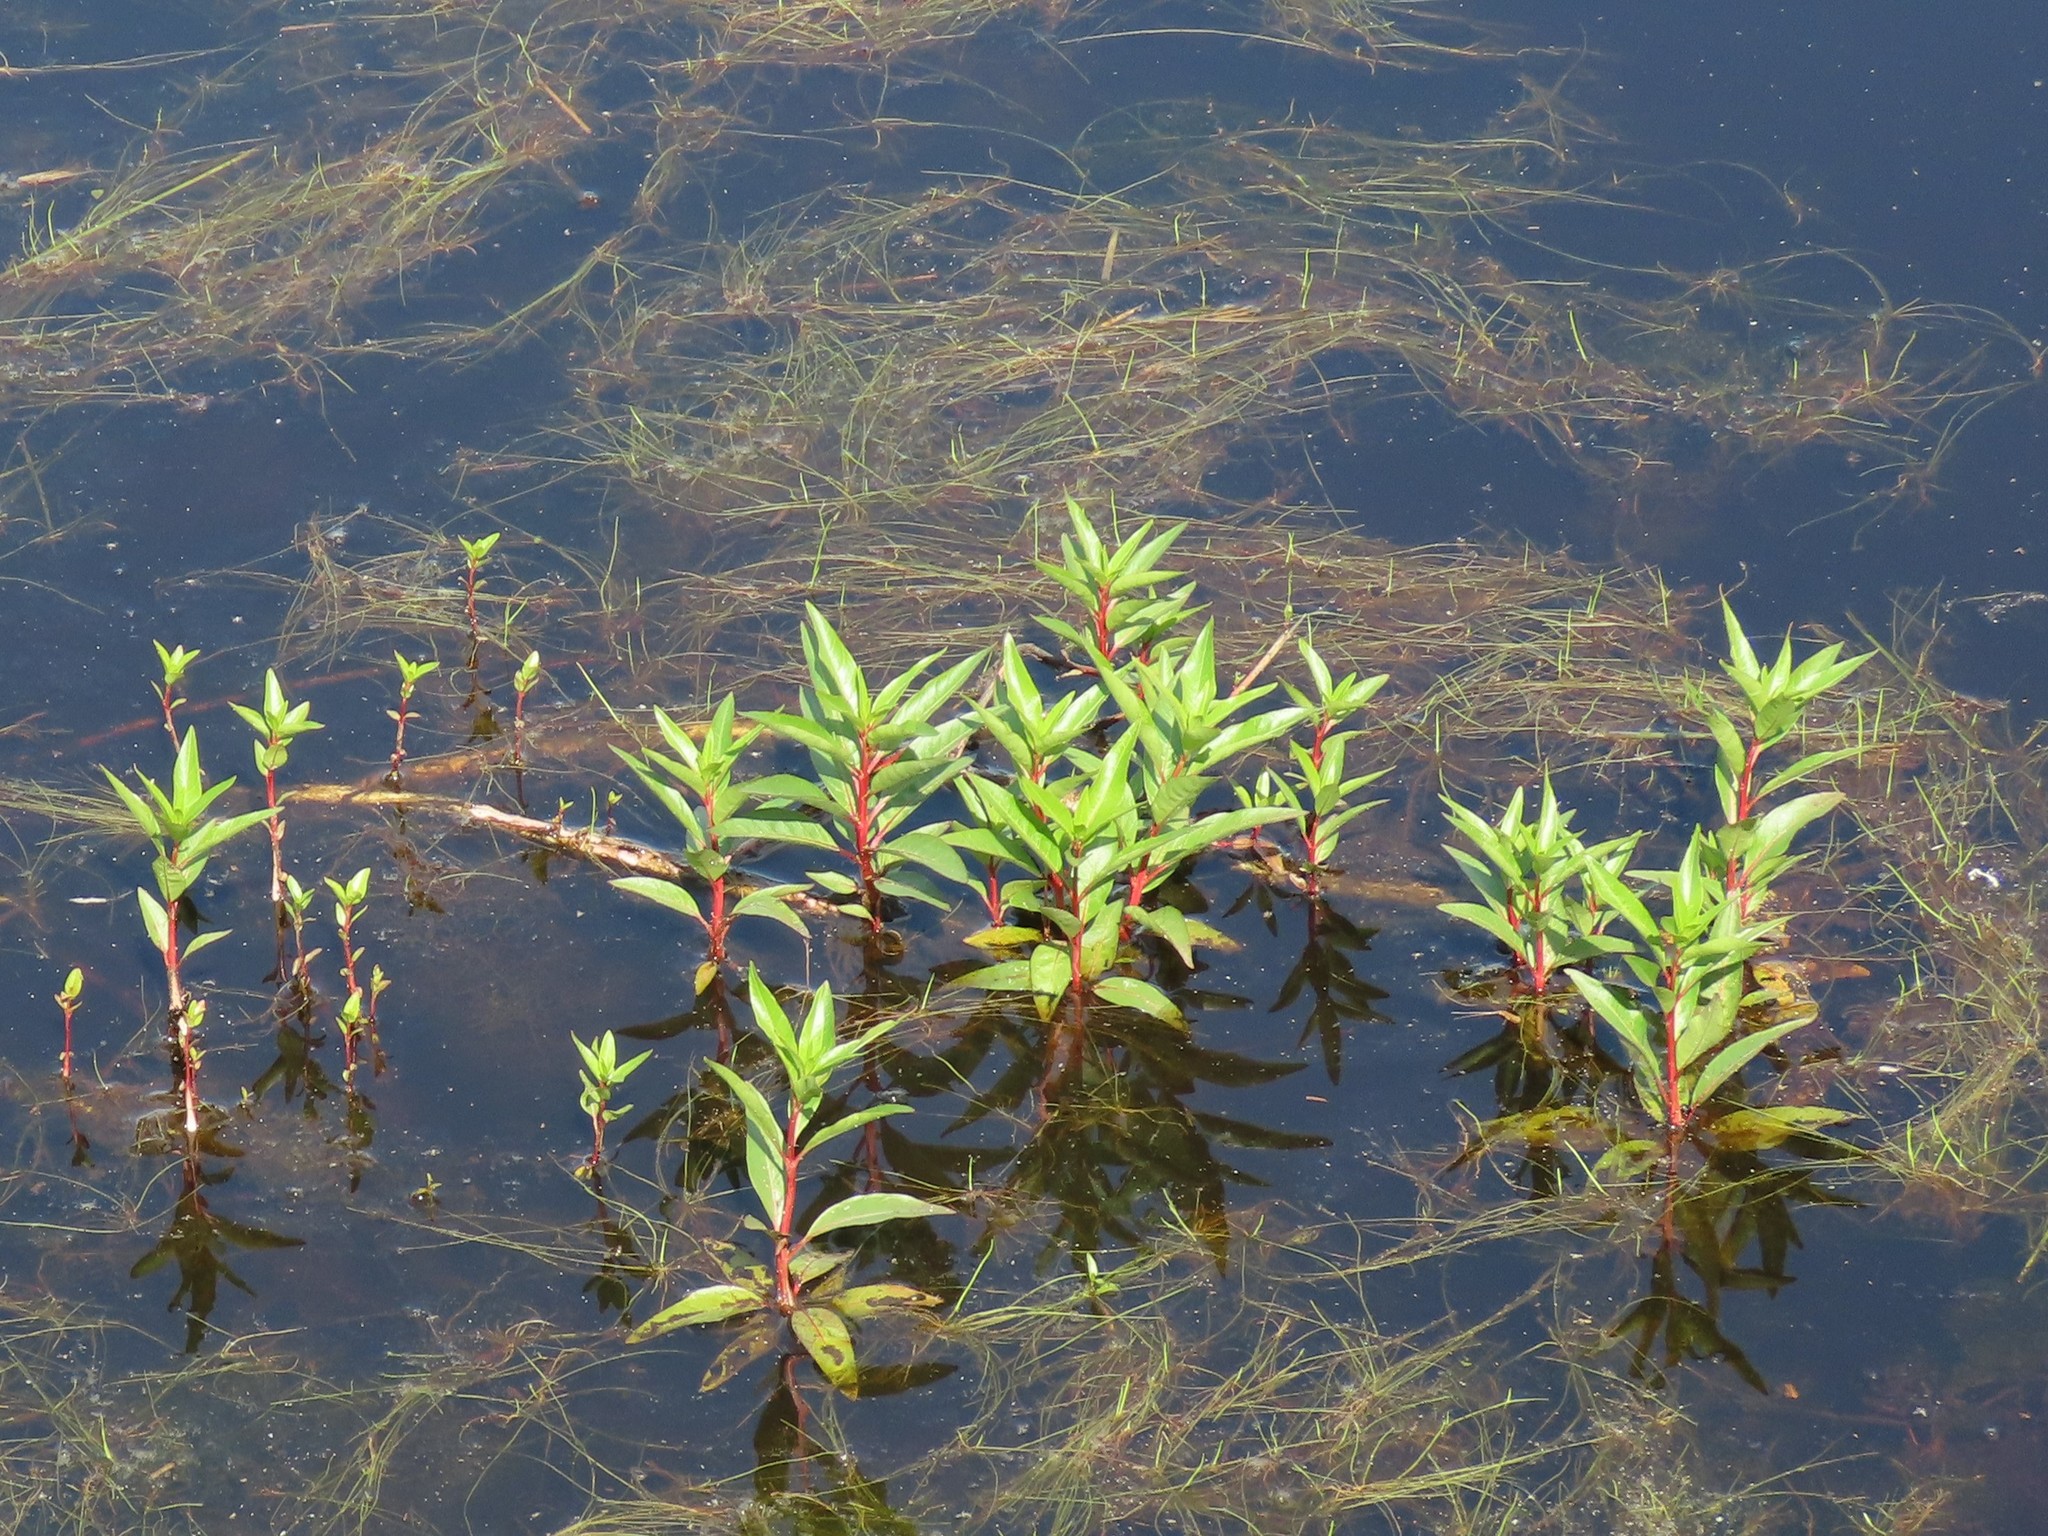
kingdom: Plantae
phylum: Tracheophyta
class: Magnoliopsida
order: Myrtales
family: Lythraceae
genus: Decodon
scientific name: Decodon verticillatus
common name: Hairy swamp loosestrife
